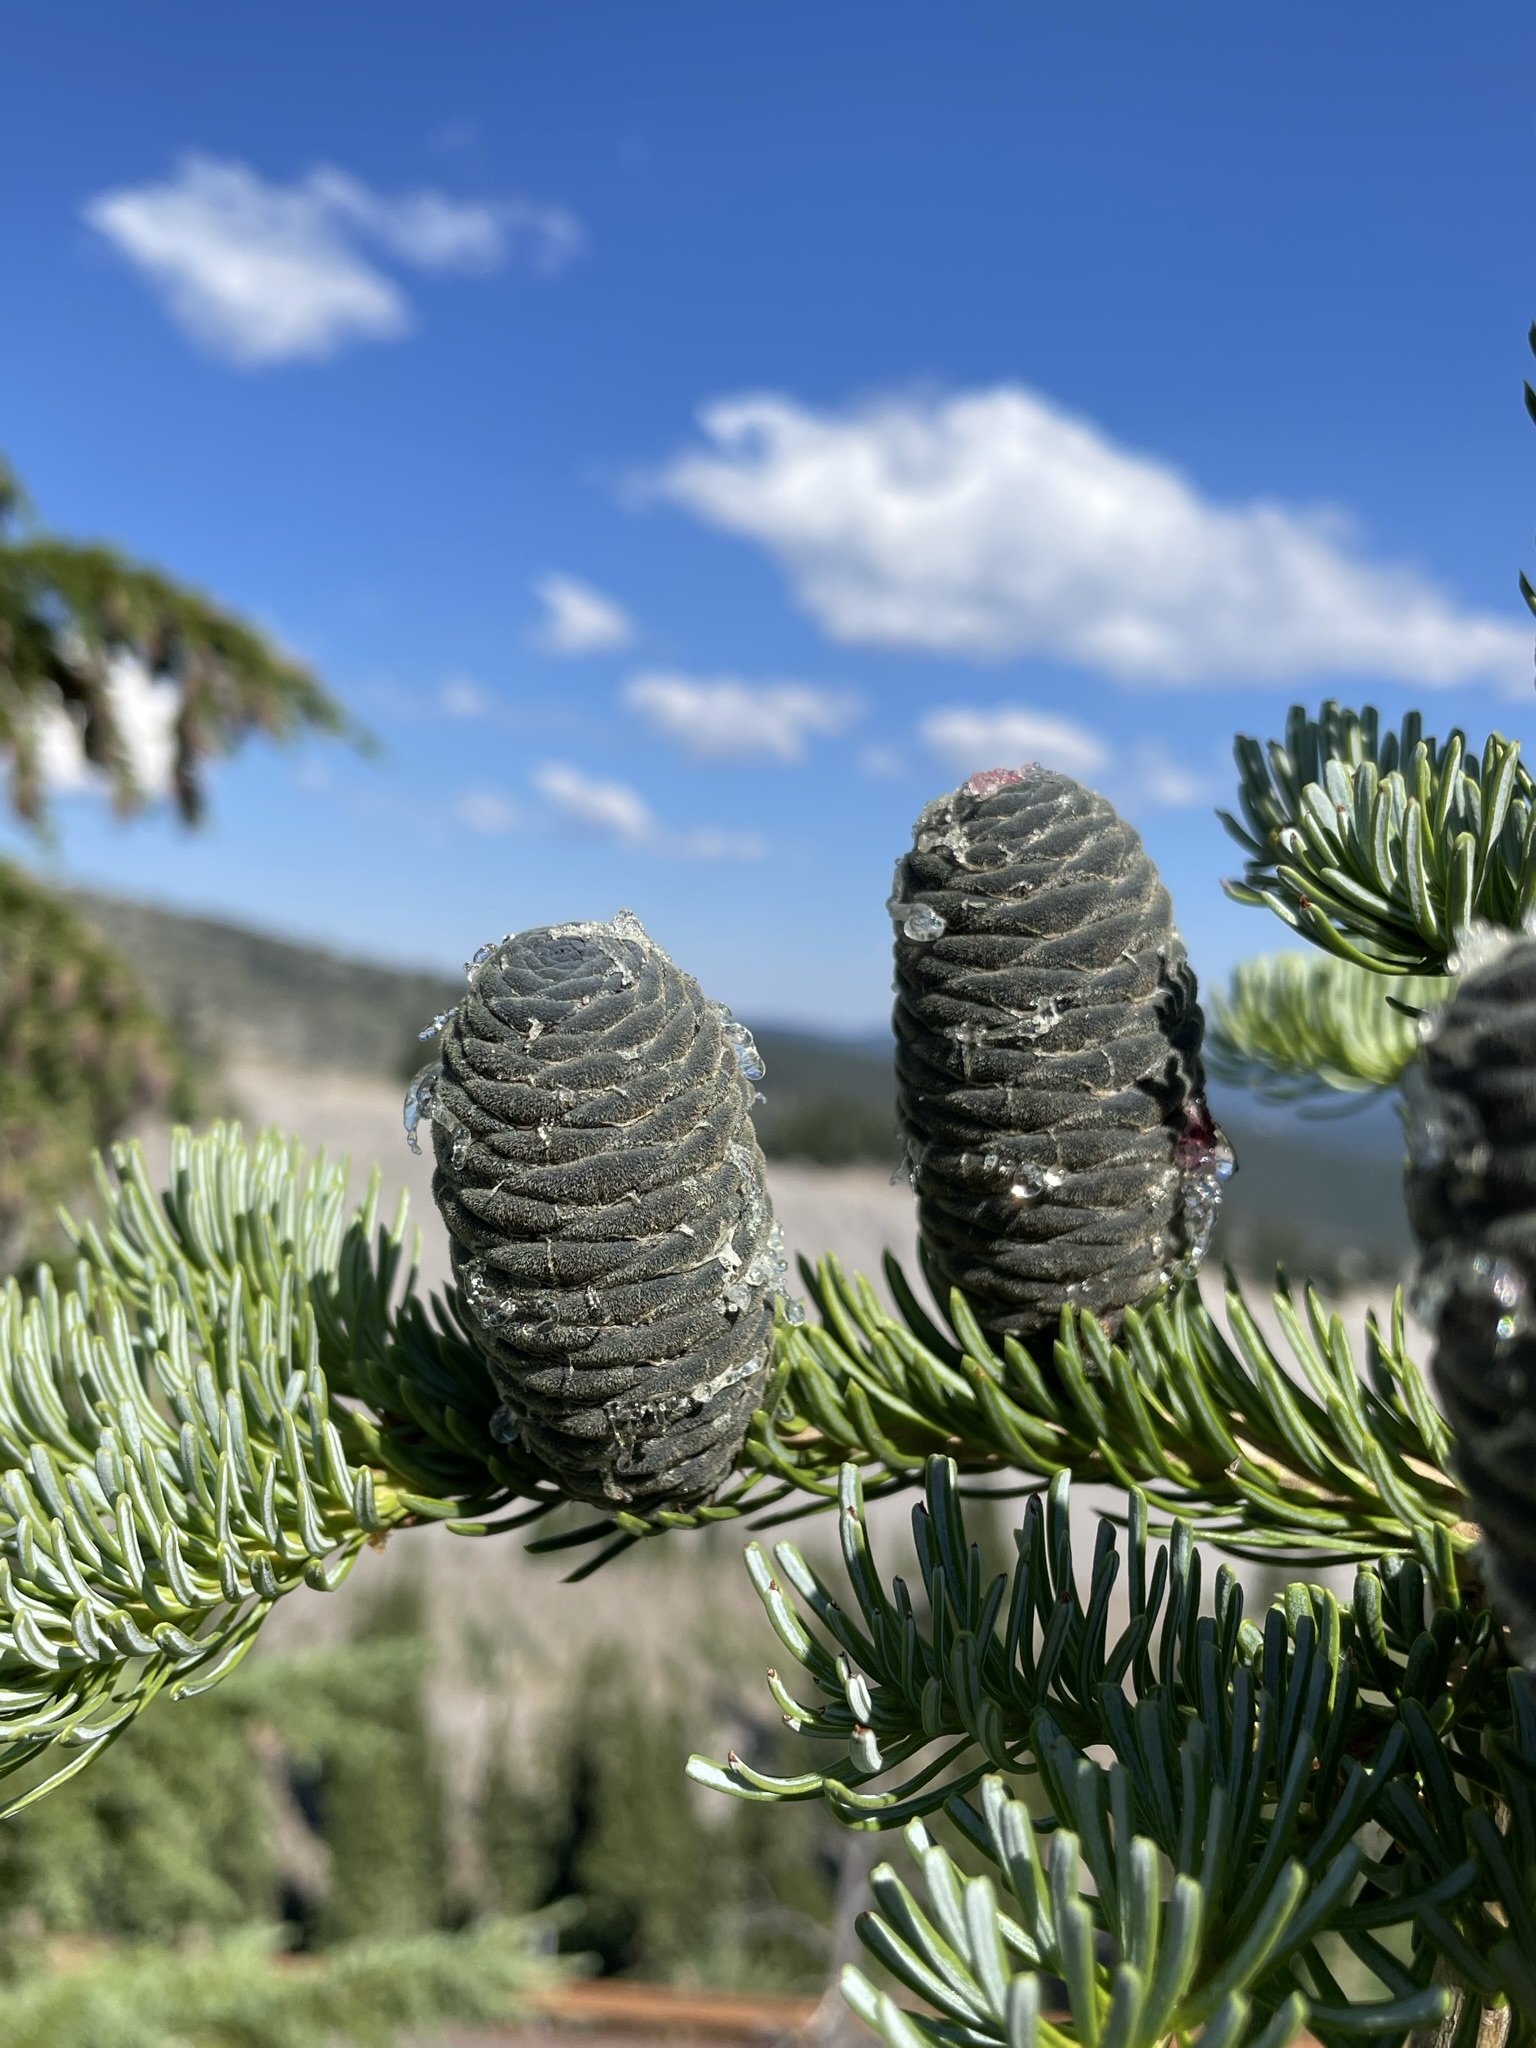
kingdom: Plantae
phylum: Tracheophyta
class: Pinopsida
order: Pinales
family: Pinaceae
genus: Abies
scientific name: Abies lasiocarpa
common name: Subalpine fir
